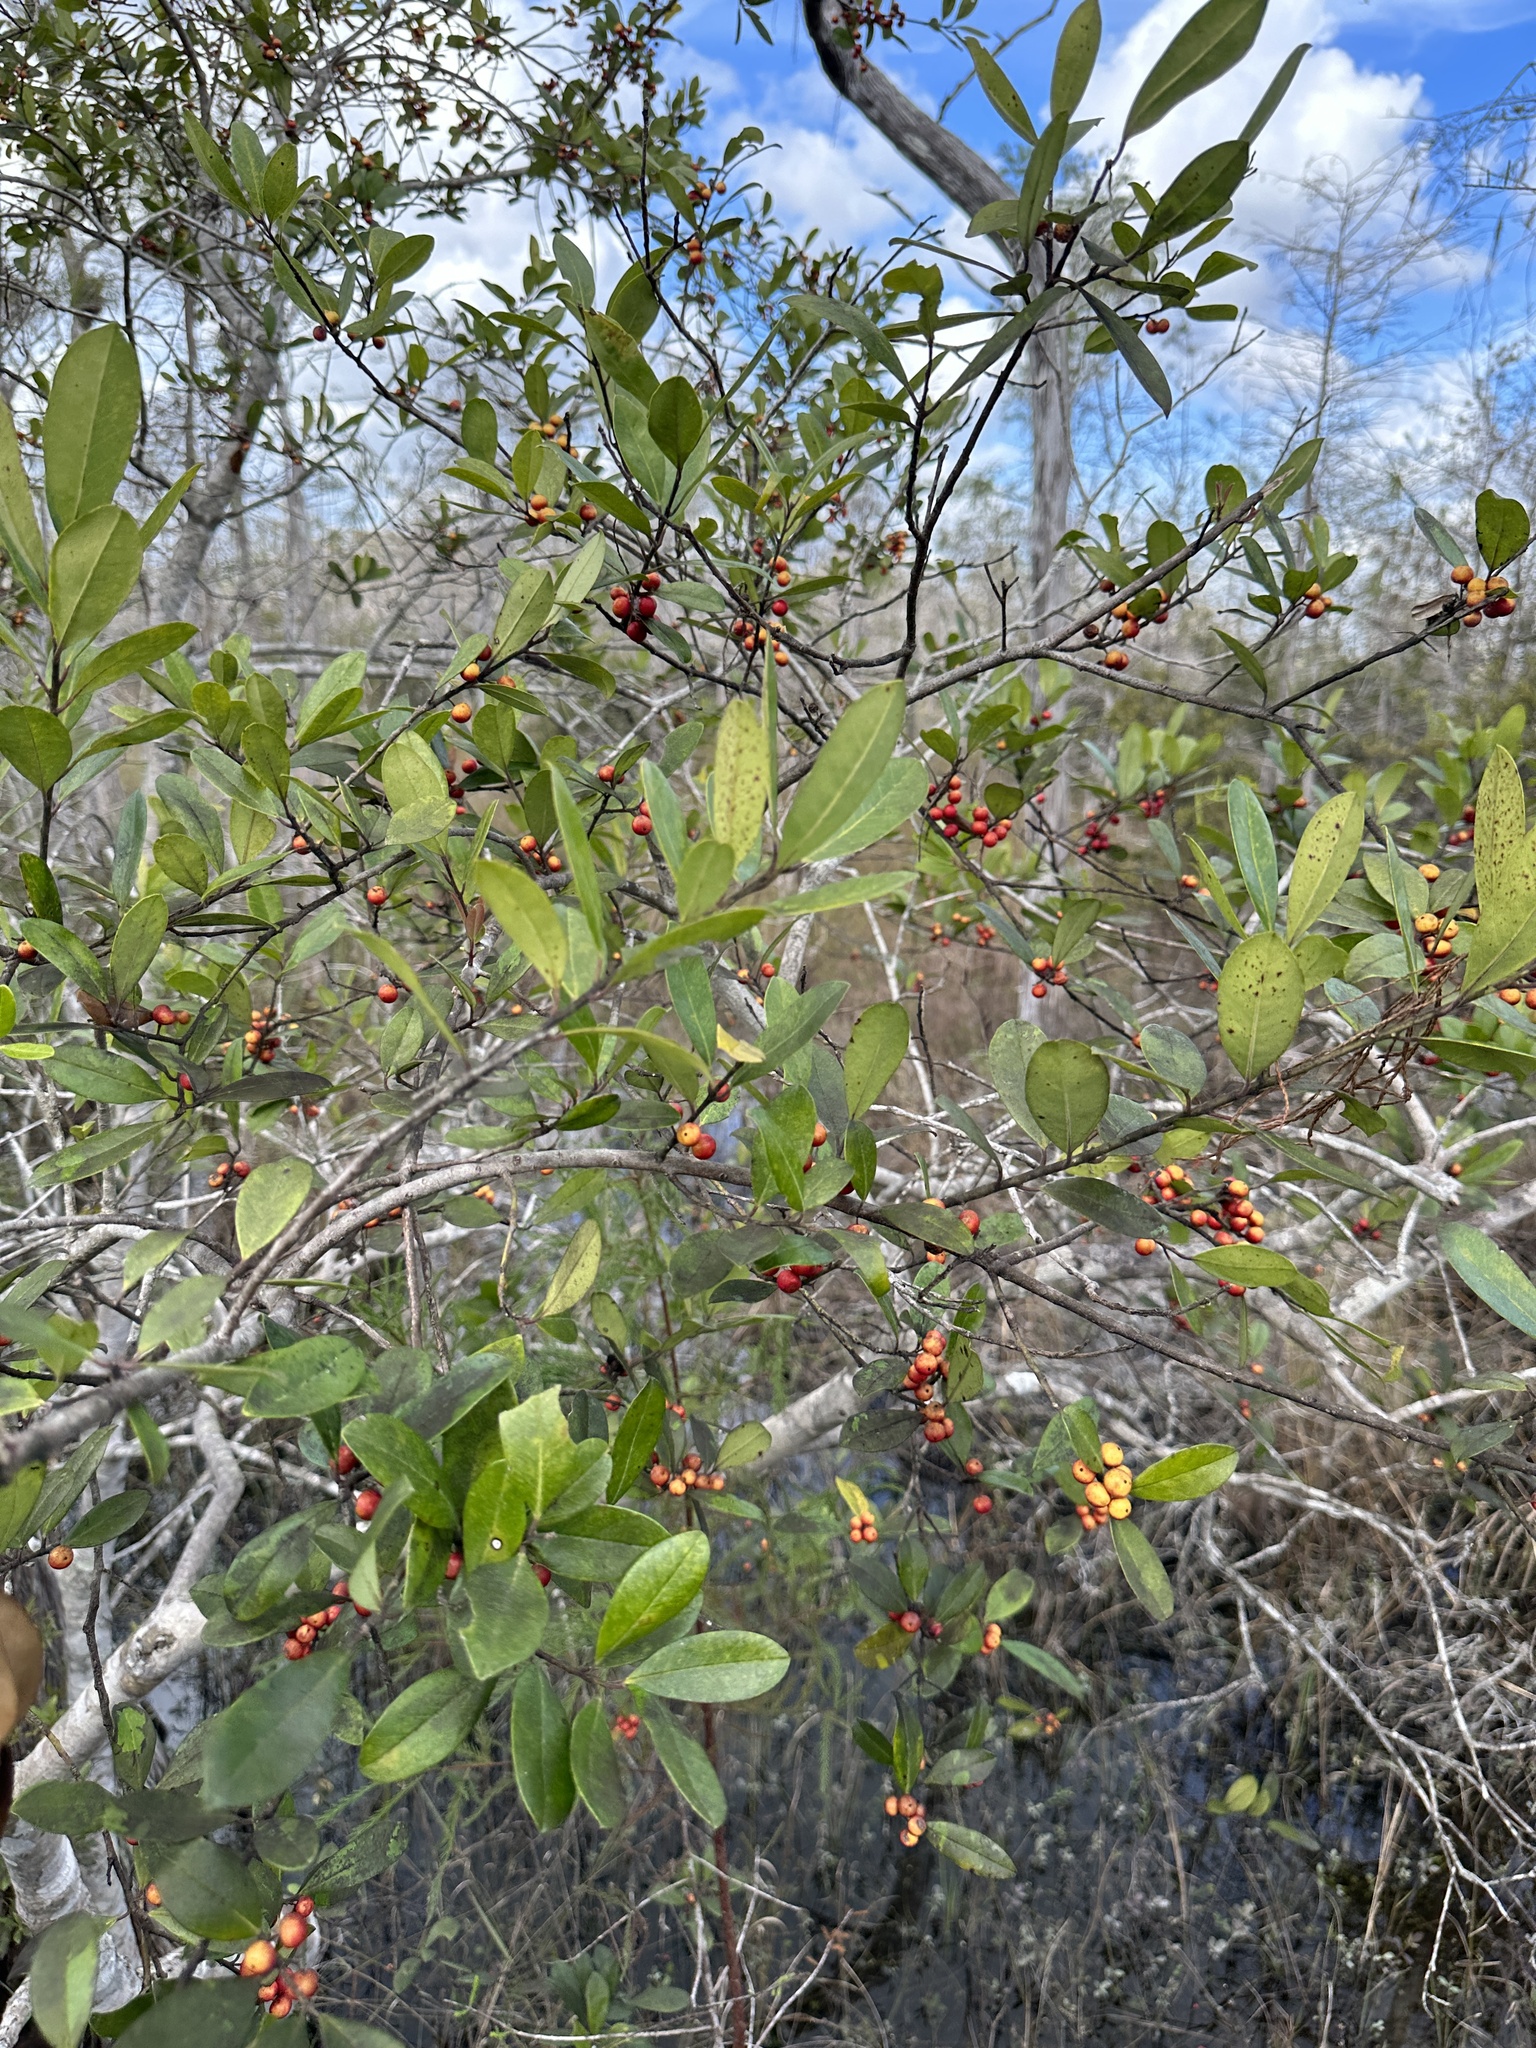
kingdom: Plantae
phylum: Tracheophyta
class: Magnoliopsida
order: Aquifoliales
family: Aquifoliaceae
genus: Ilex
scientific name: Ilex cassine
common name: Dahoon
